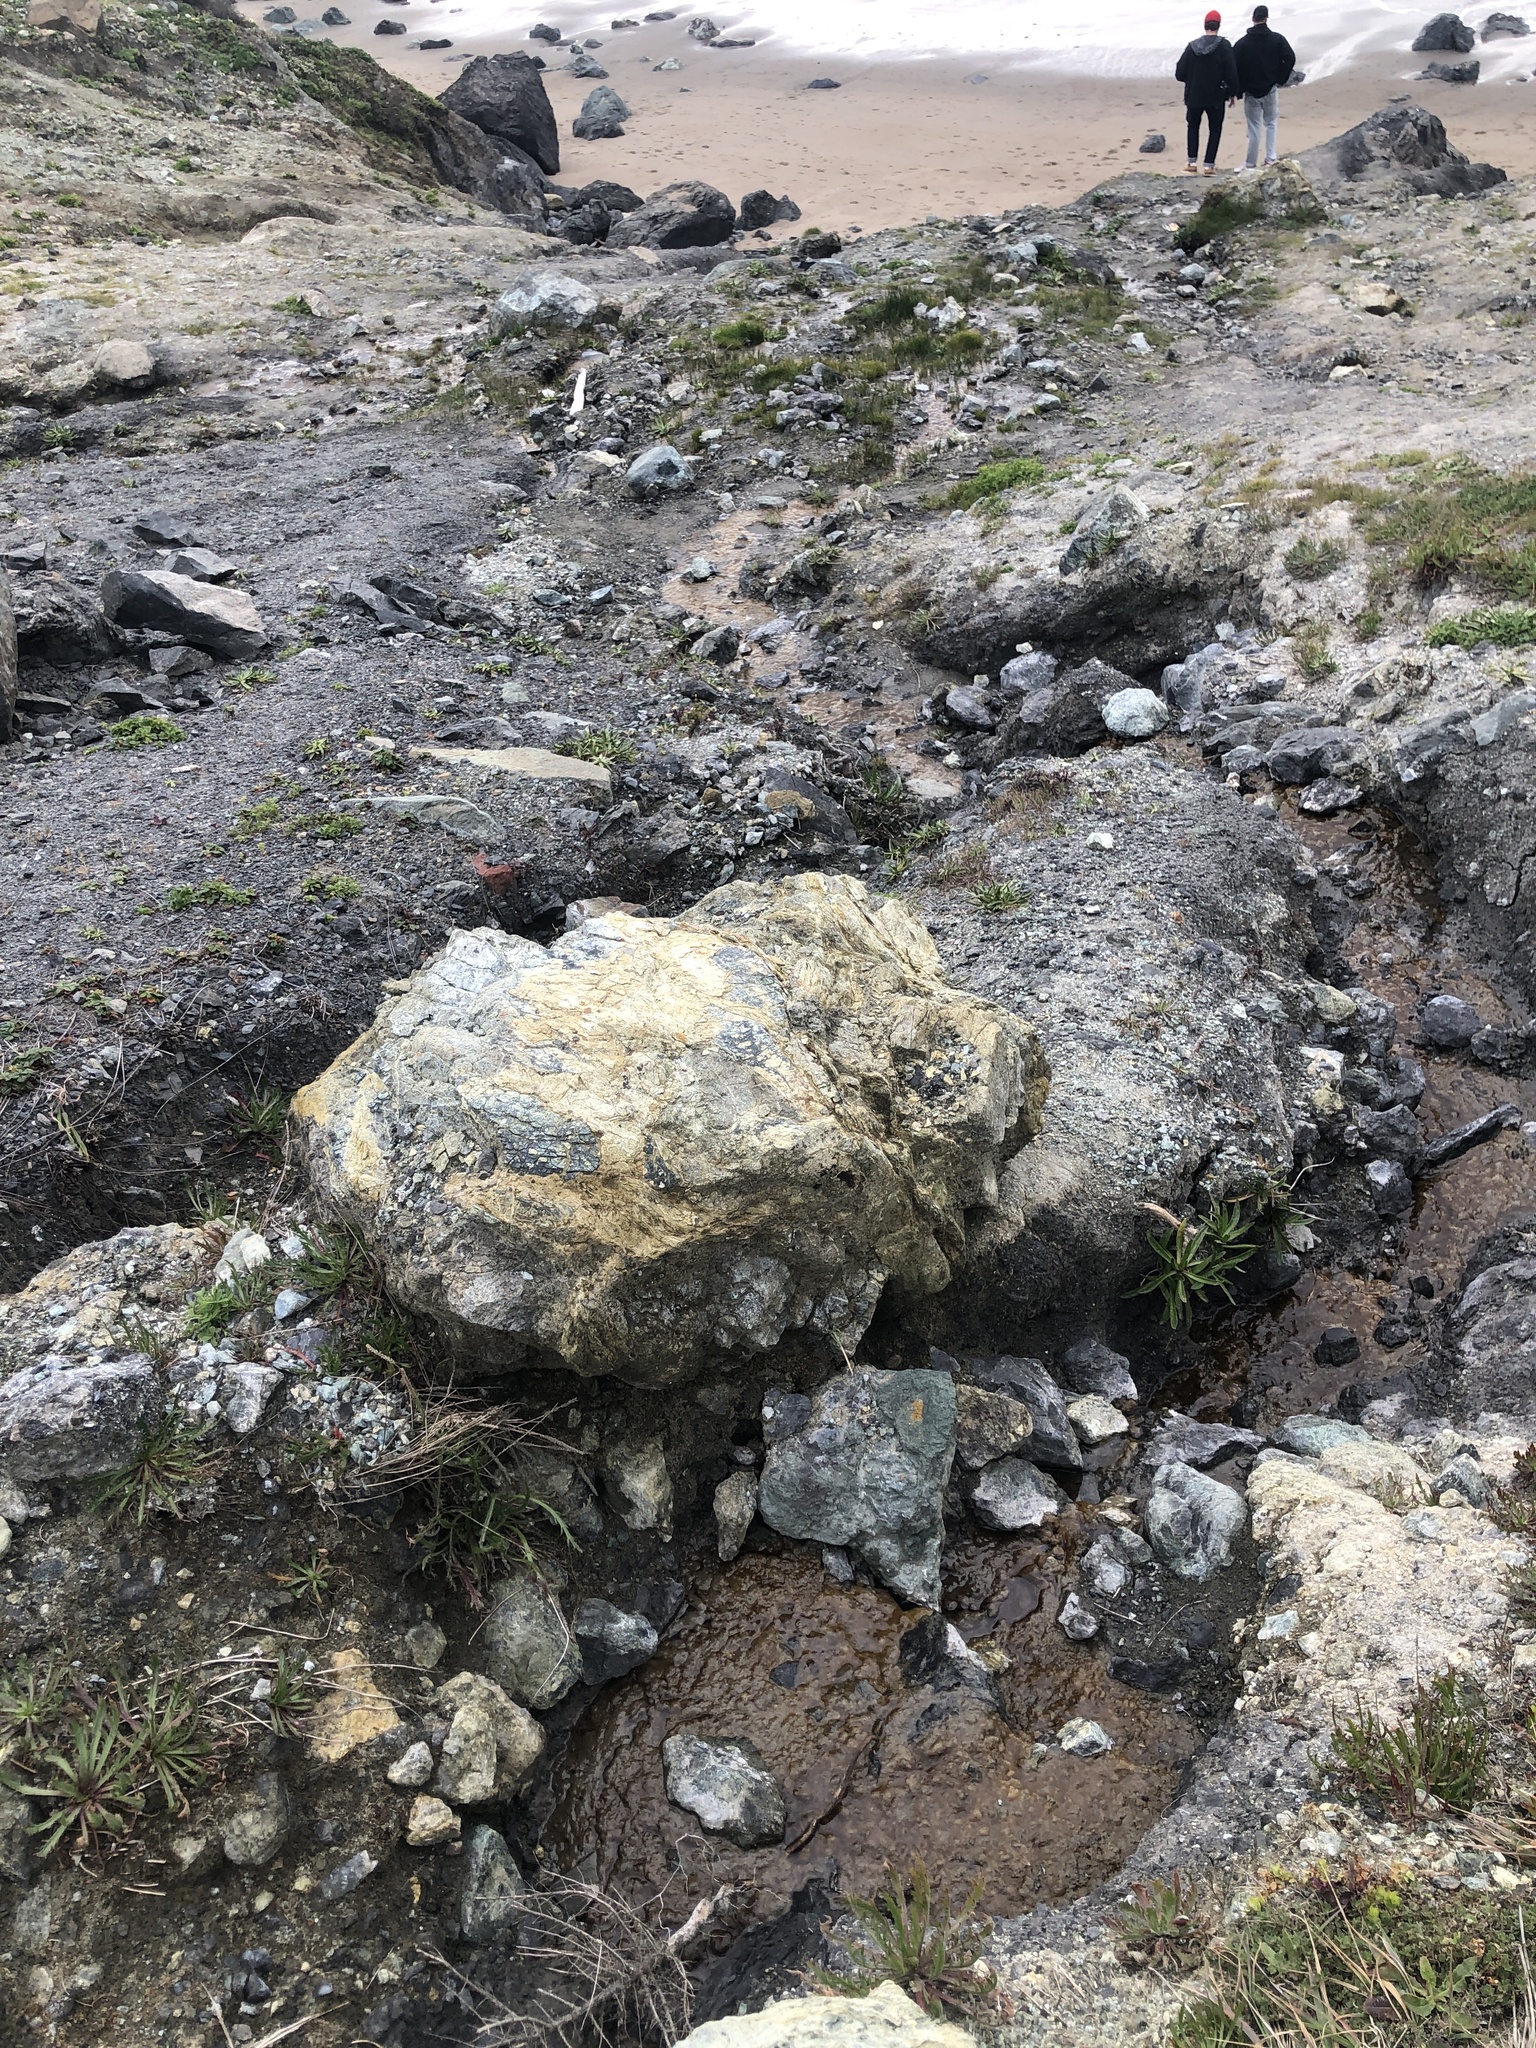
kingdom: Plantae
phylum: Tracheophyta
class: Magnoliopsida
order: Lamiales
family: Plantaginaceae
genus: Plantago
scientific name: Plantago coronopus
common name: Buck's-horn plantain
